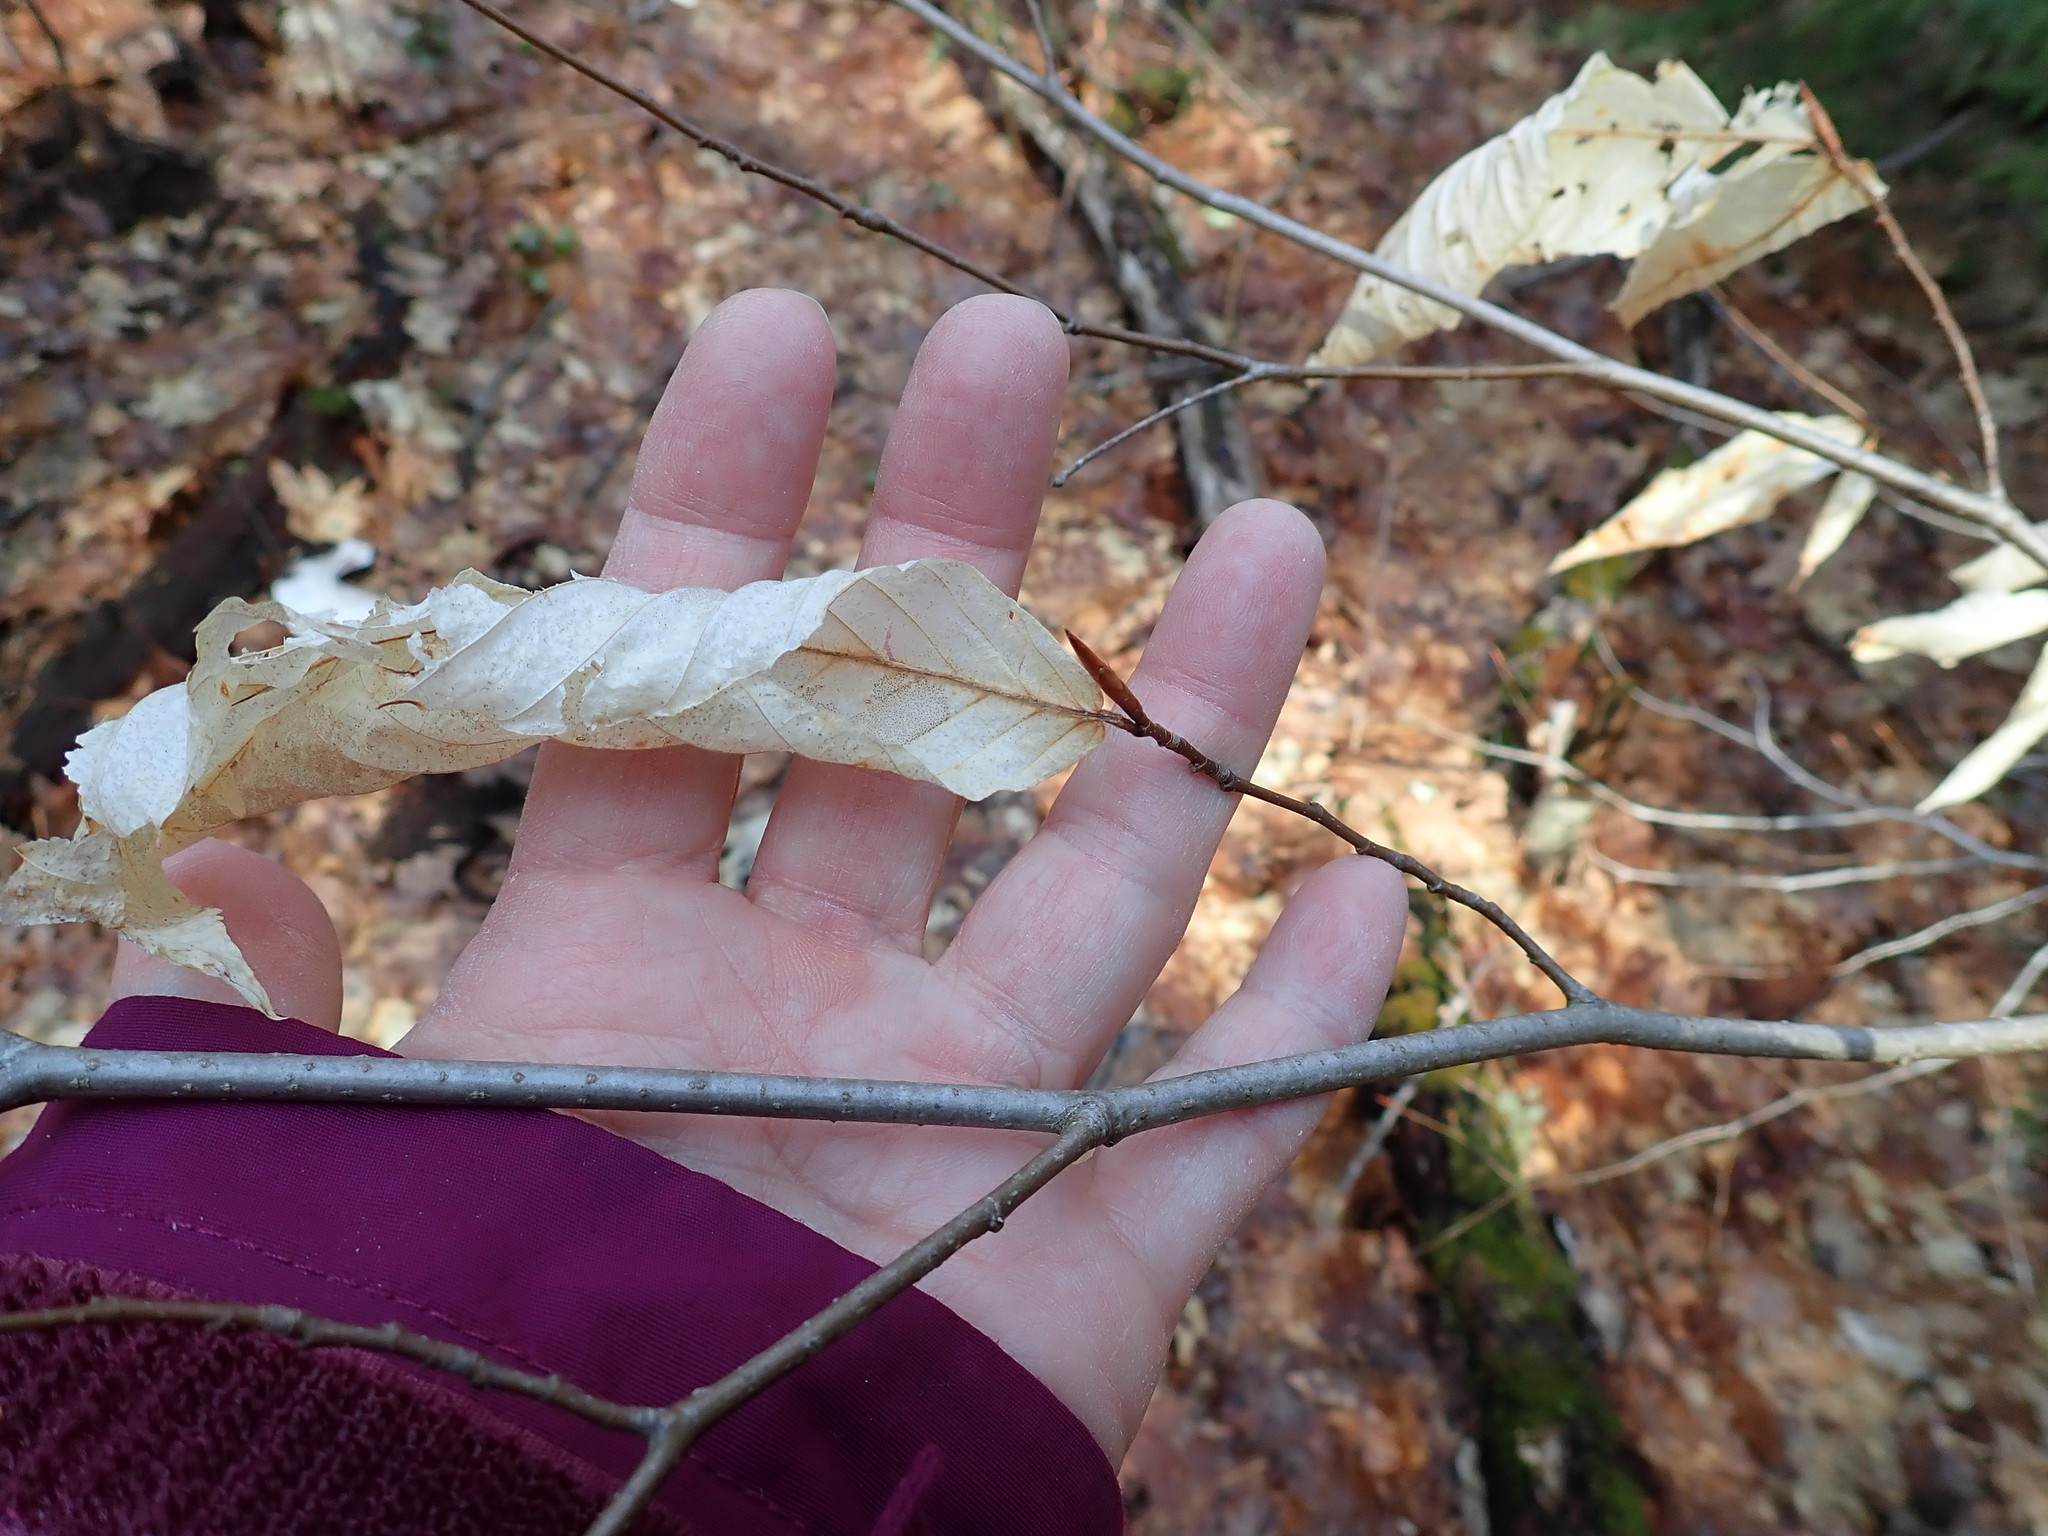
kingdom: Plantae
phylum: Tracheophyta
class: Magnoliopsida
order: Fagales
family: Fagaceae
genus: Fagus
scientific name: Fagus grandifolia
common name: American beech
